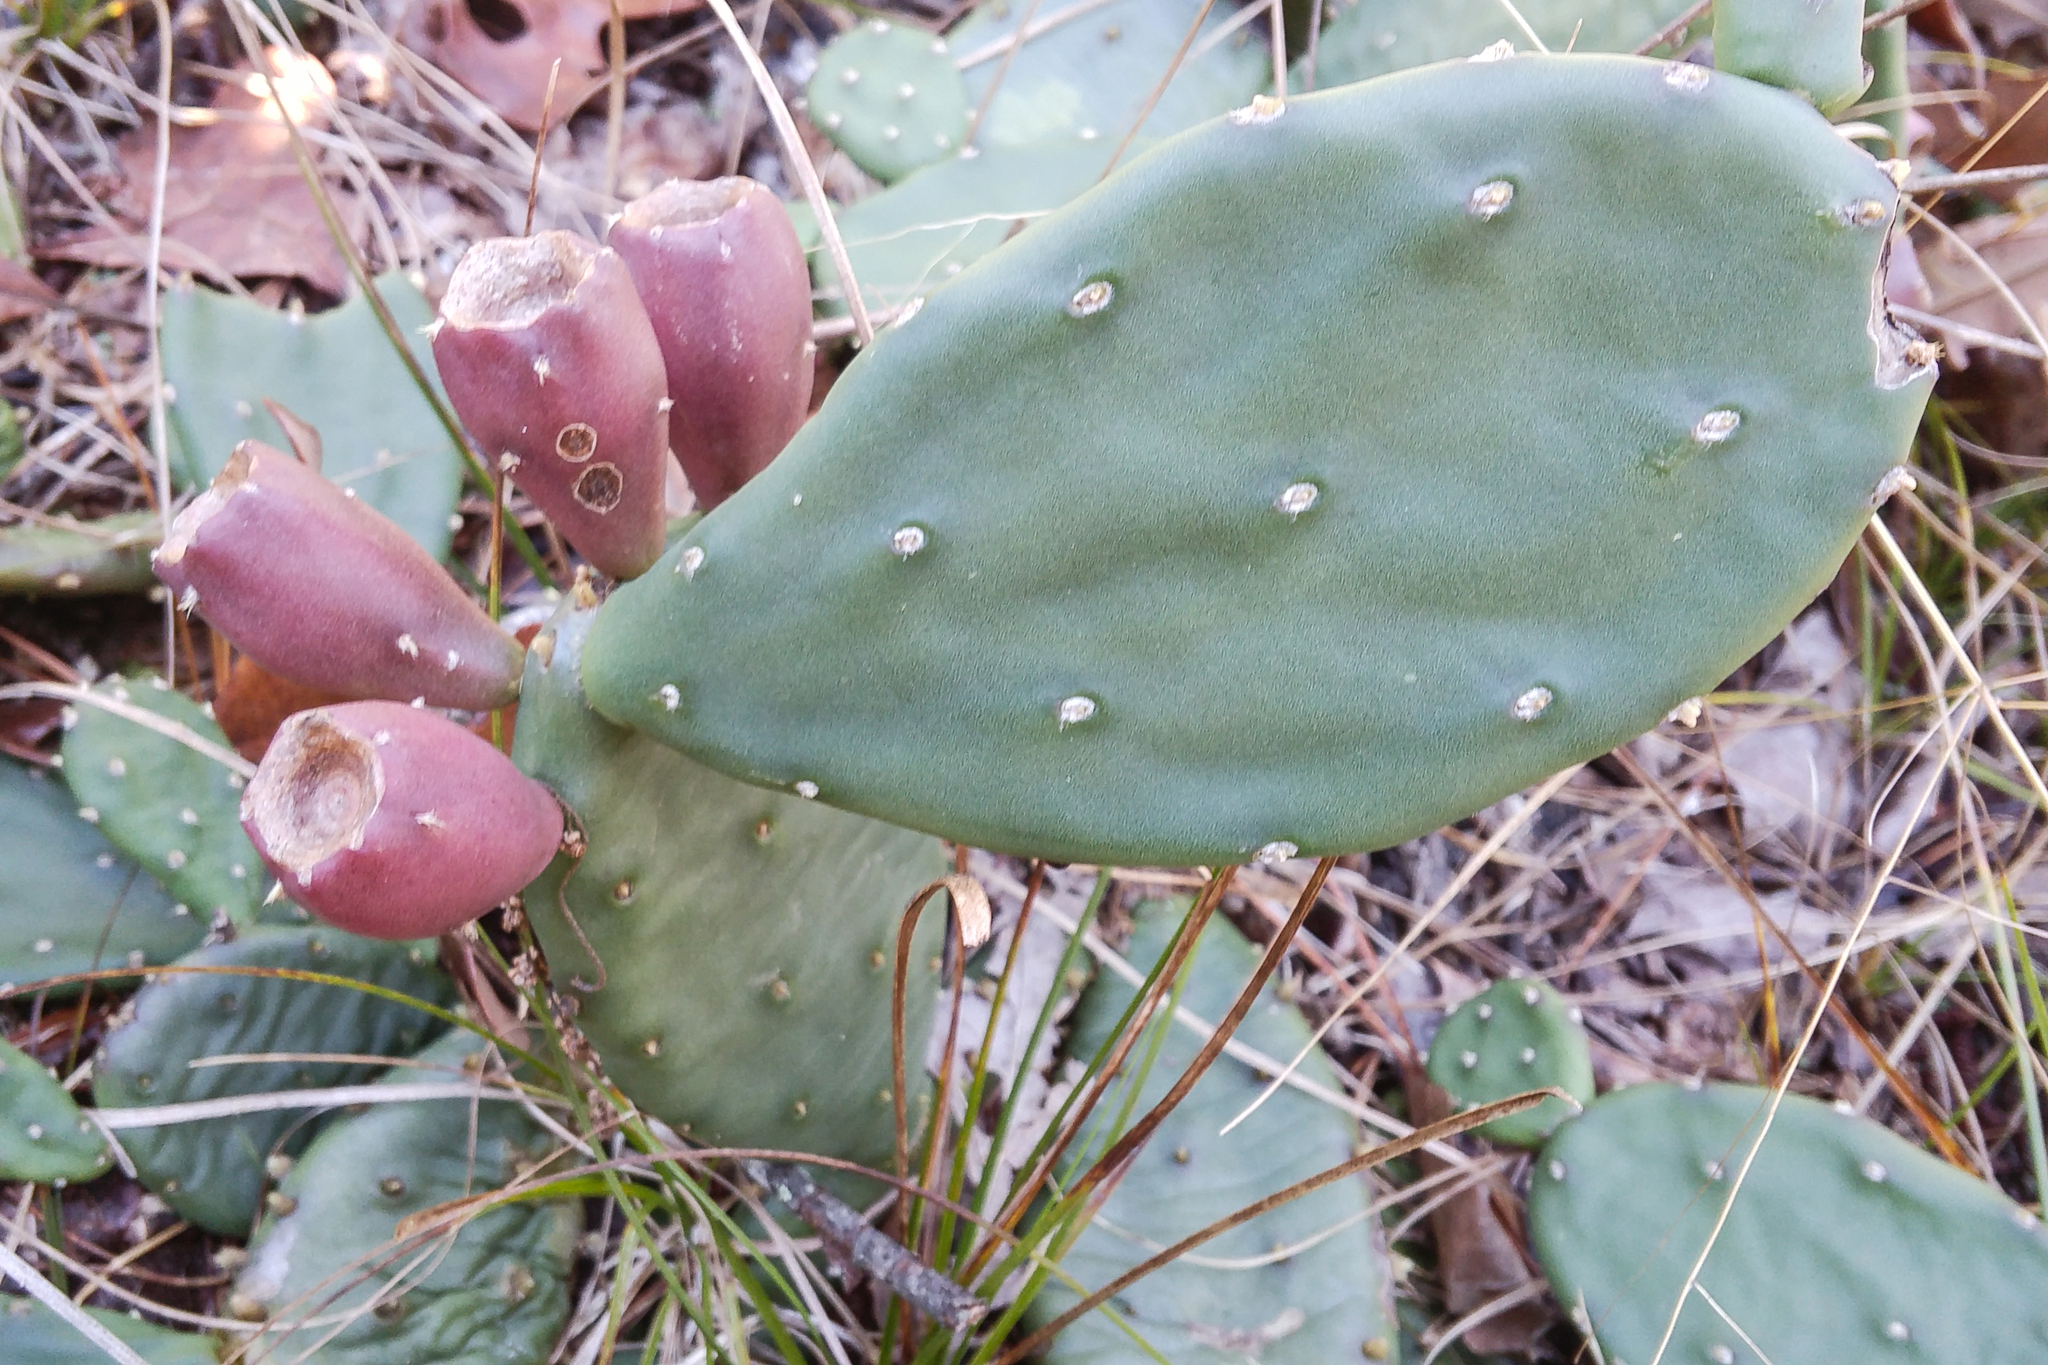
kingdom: Plantae
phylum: Tracheophyta
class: Magnoliopsida
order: Caryophyllales
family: Cactaceae
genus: Opuntia
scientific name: Opuntia humifusa
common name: Eastern prickly-pear
